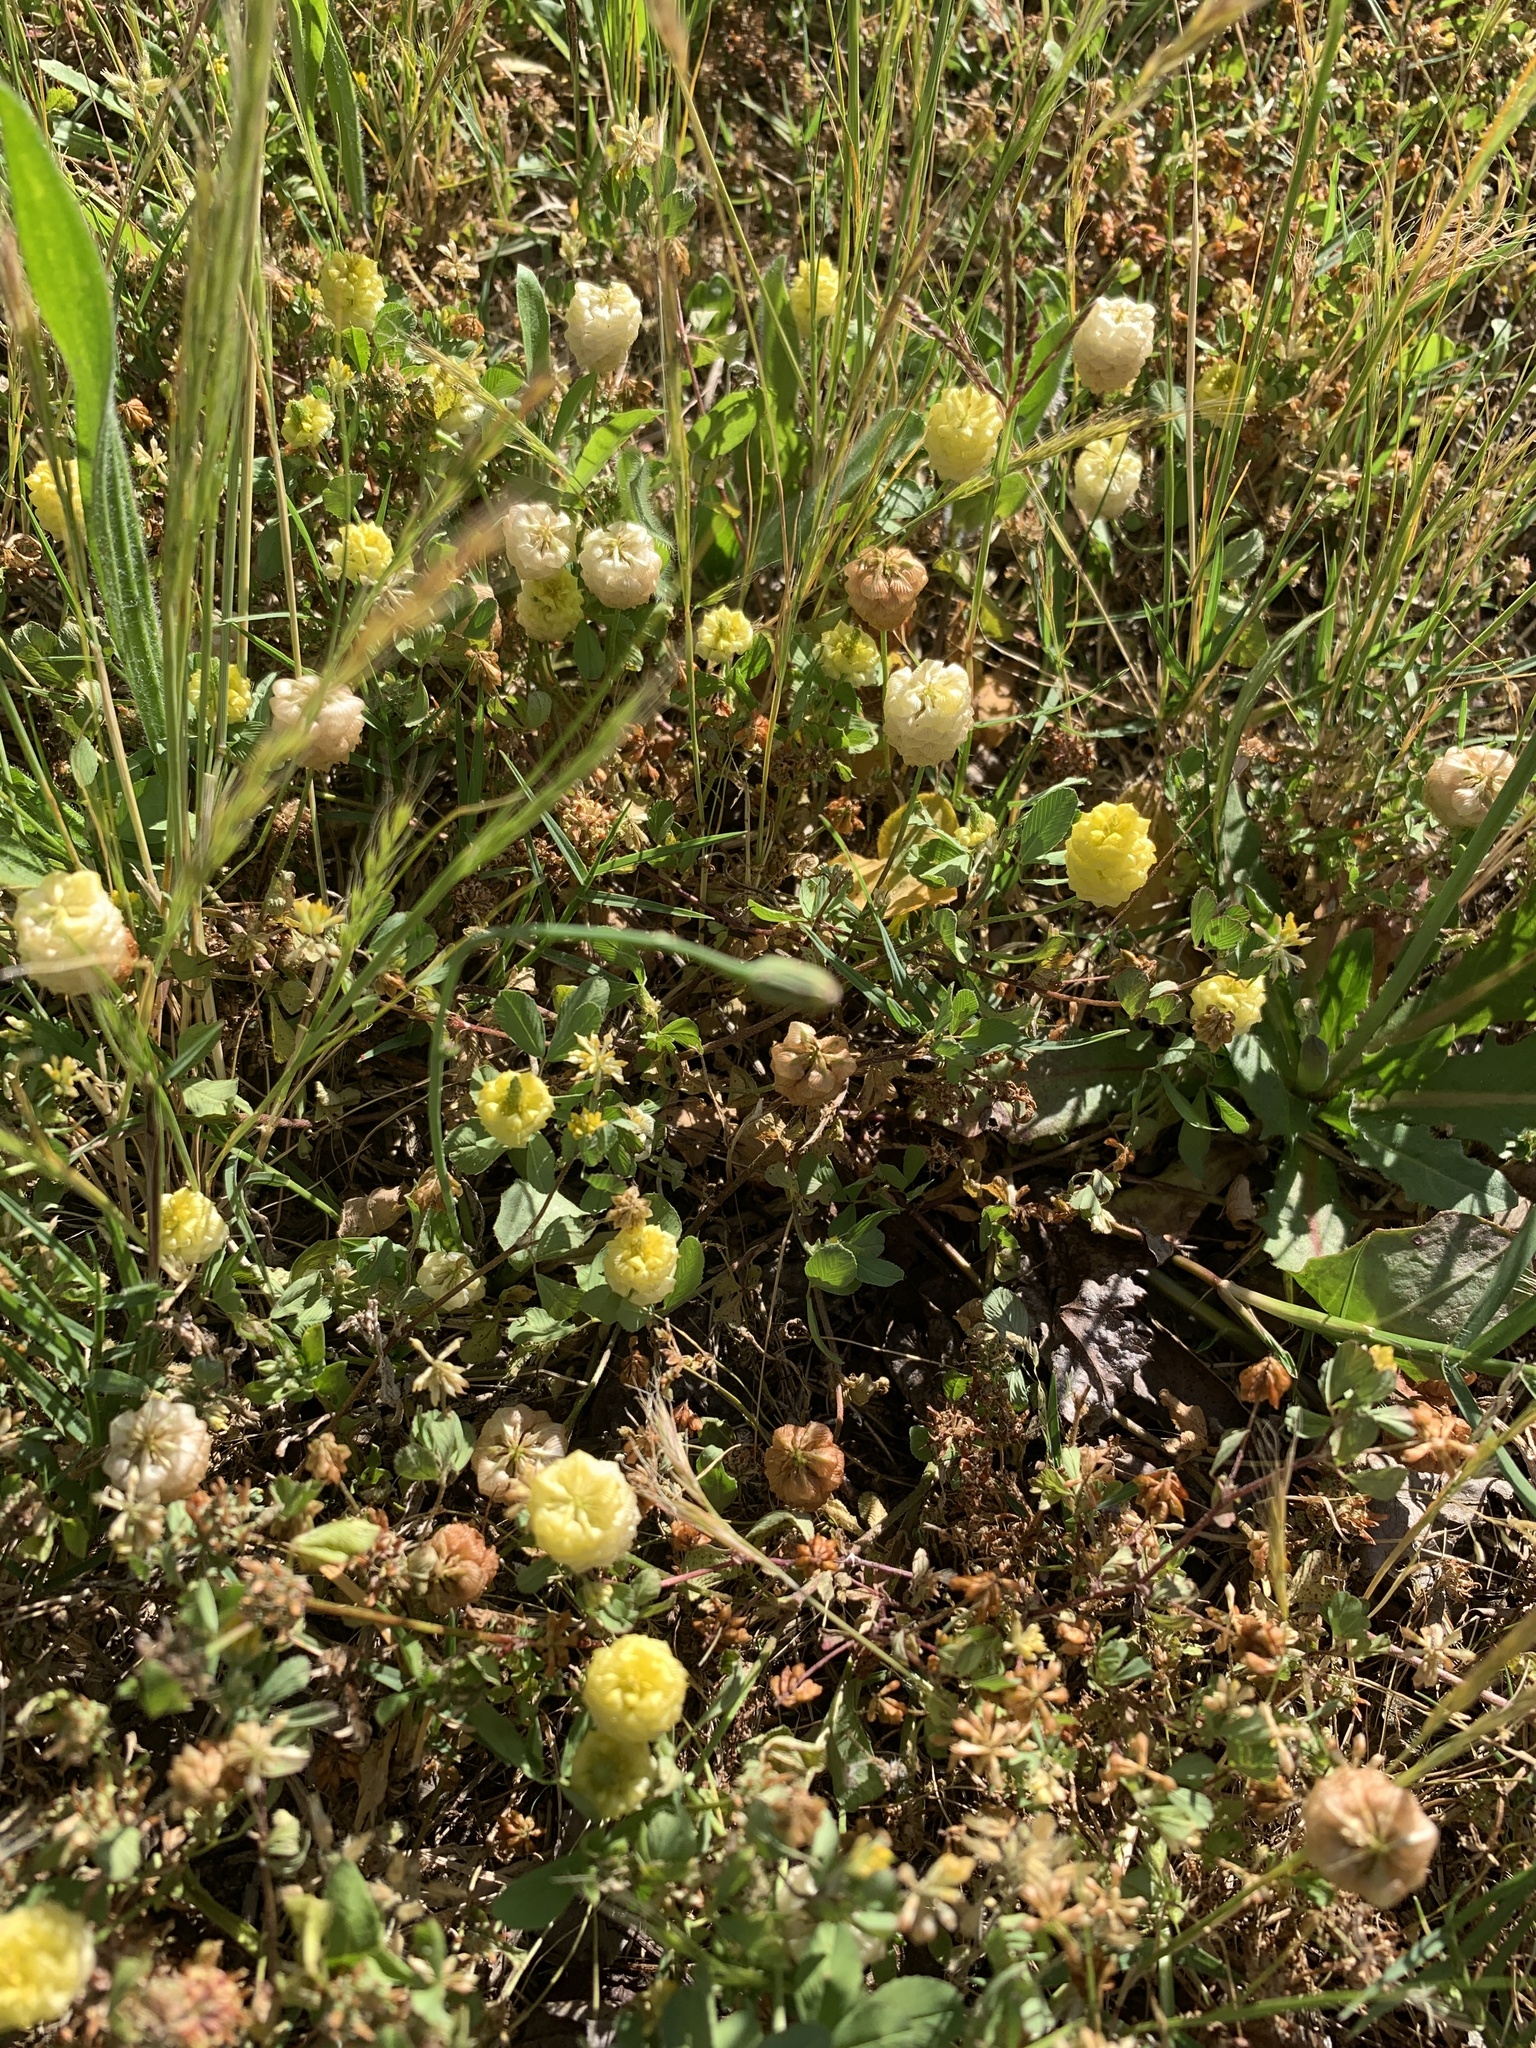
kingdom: Plantae
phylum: Tracheophyta
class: Magnoliopsida
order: Fabales
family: Fabaceae
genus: Trifolium
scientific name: Trifolium campestre
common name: Field clover
